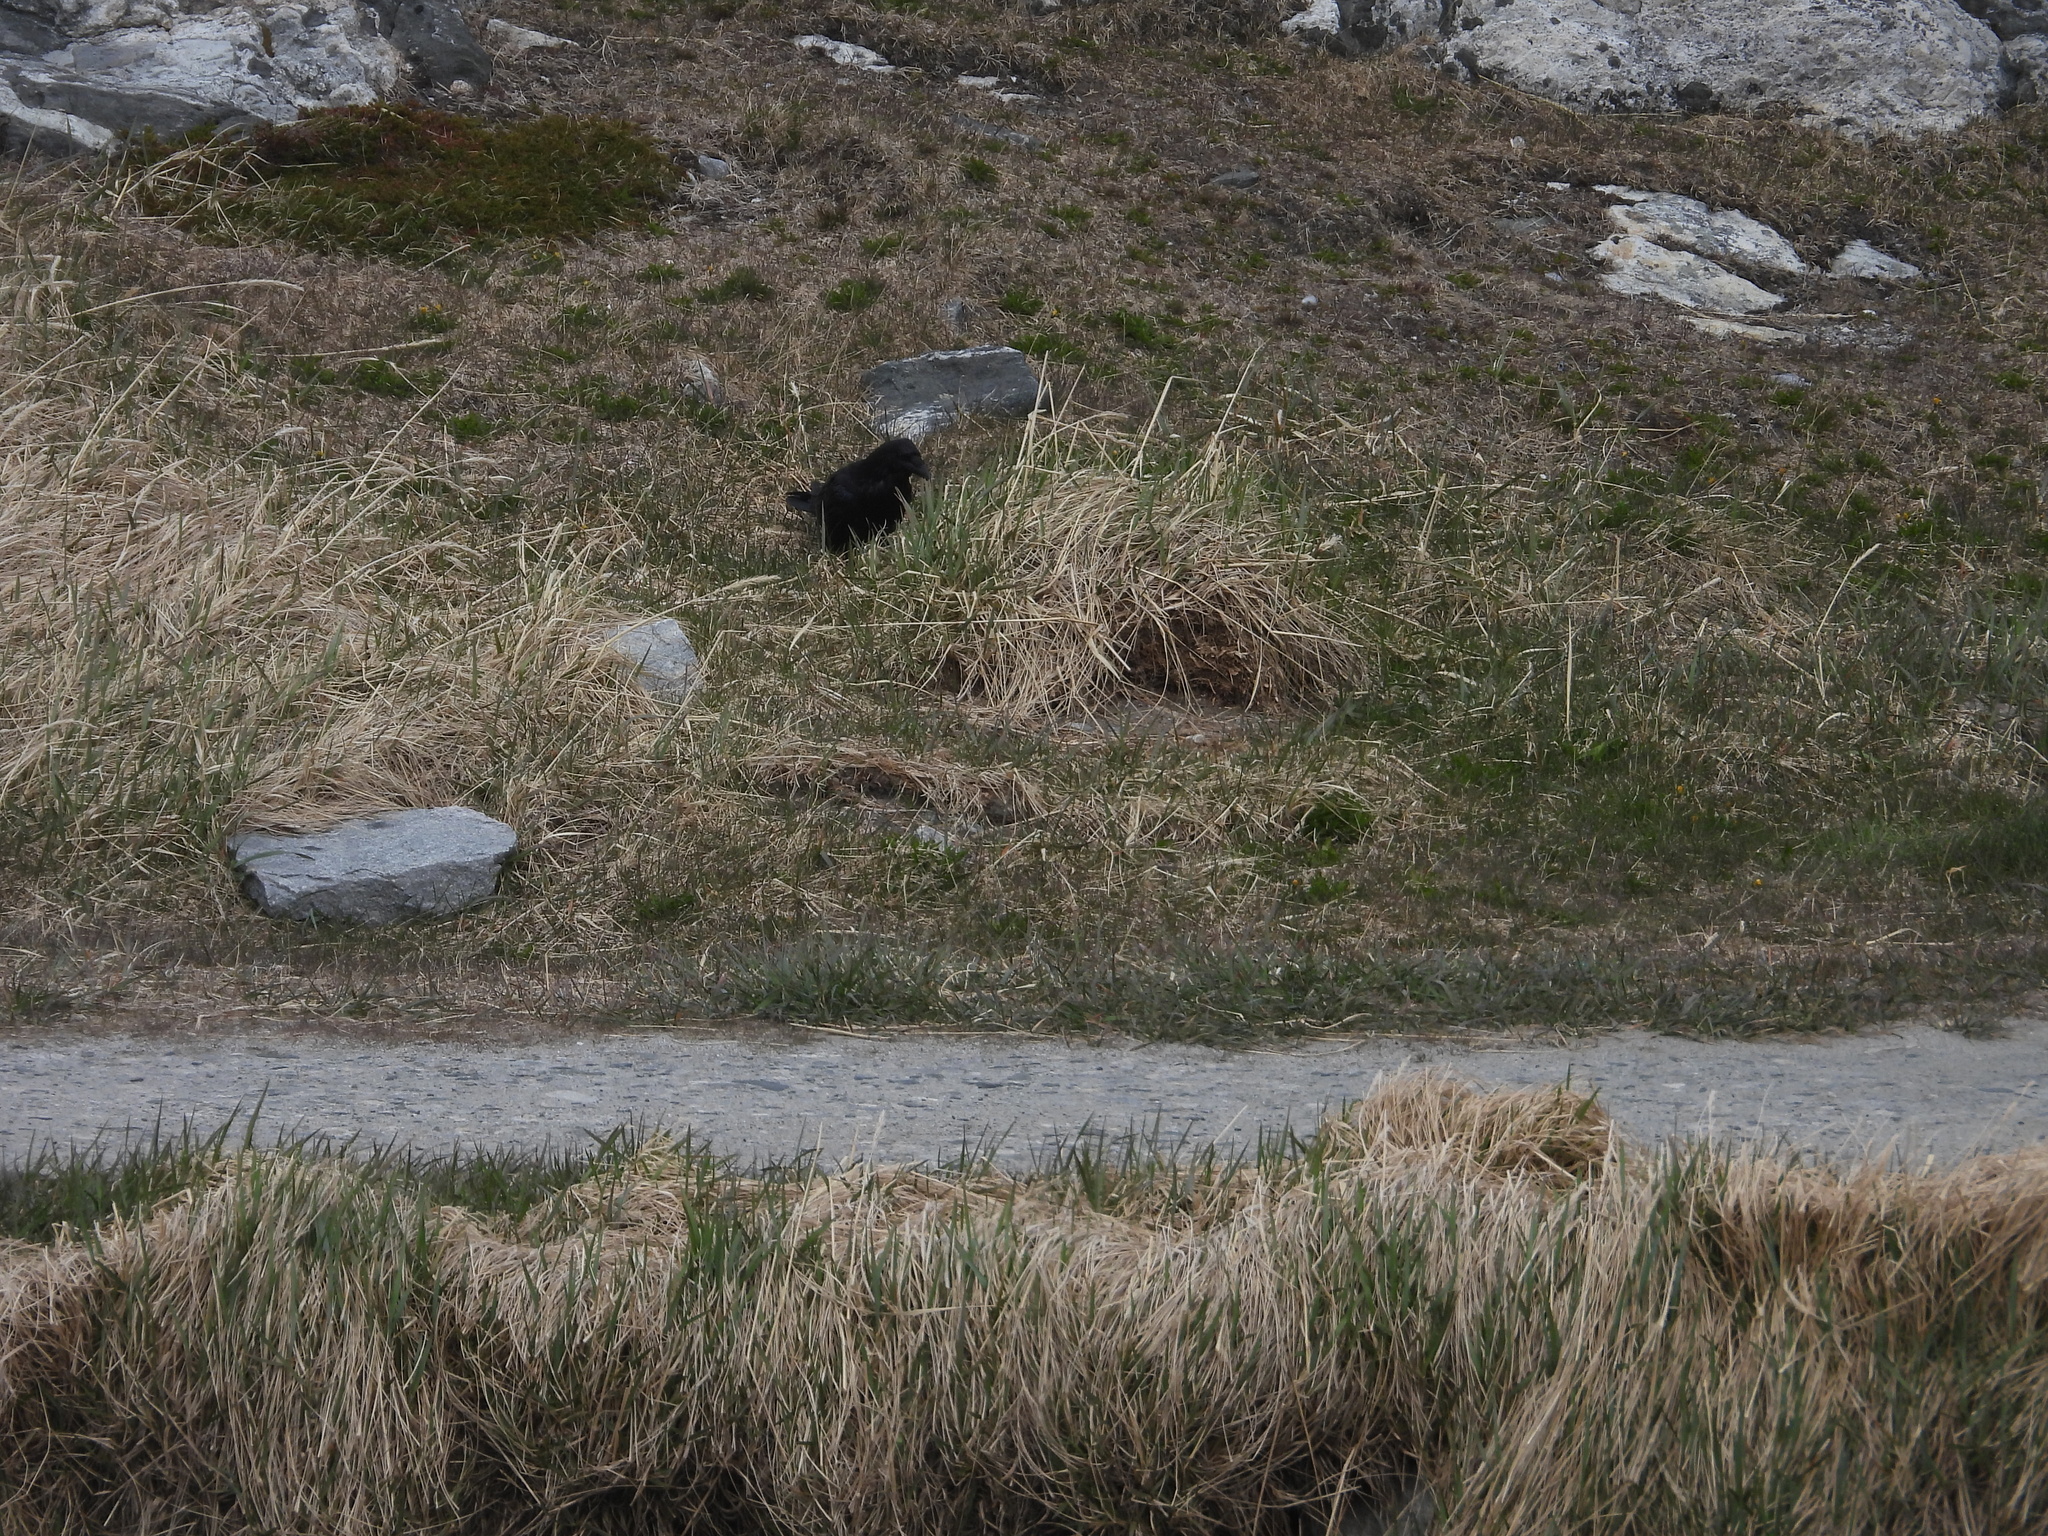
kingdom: Animalia
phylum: Chordata
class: Aves
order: Passeriformes
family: Corvidae
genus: Corvus
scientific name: Corvus corax
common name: Common raven
